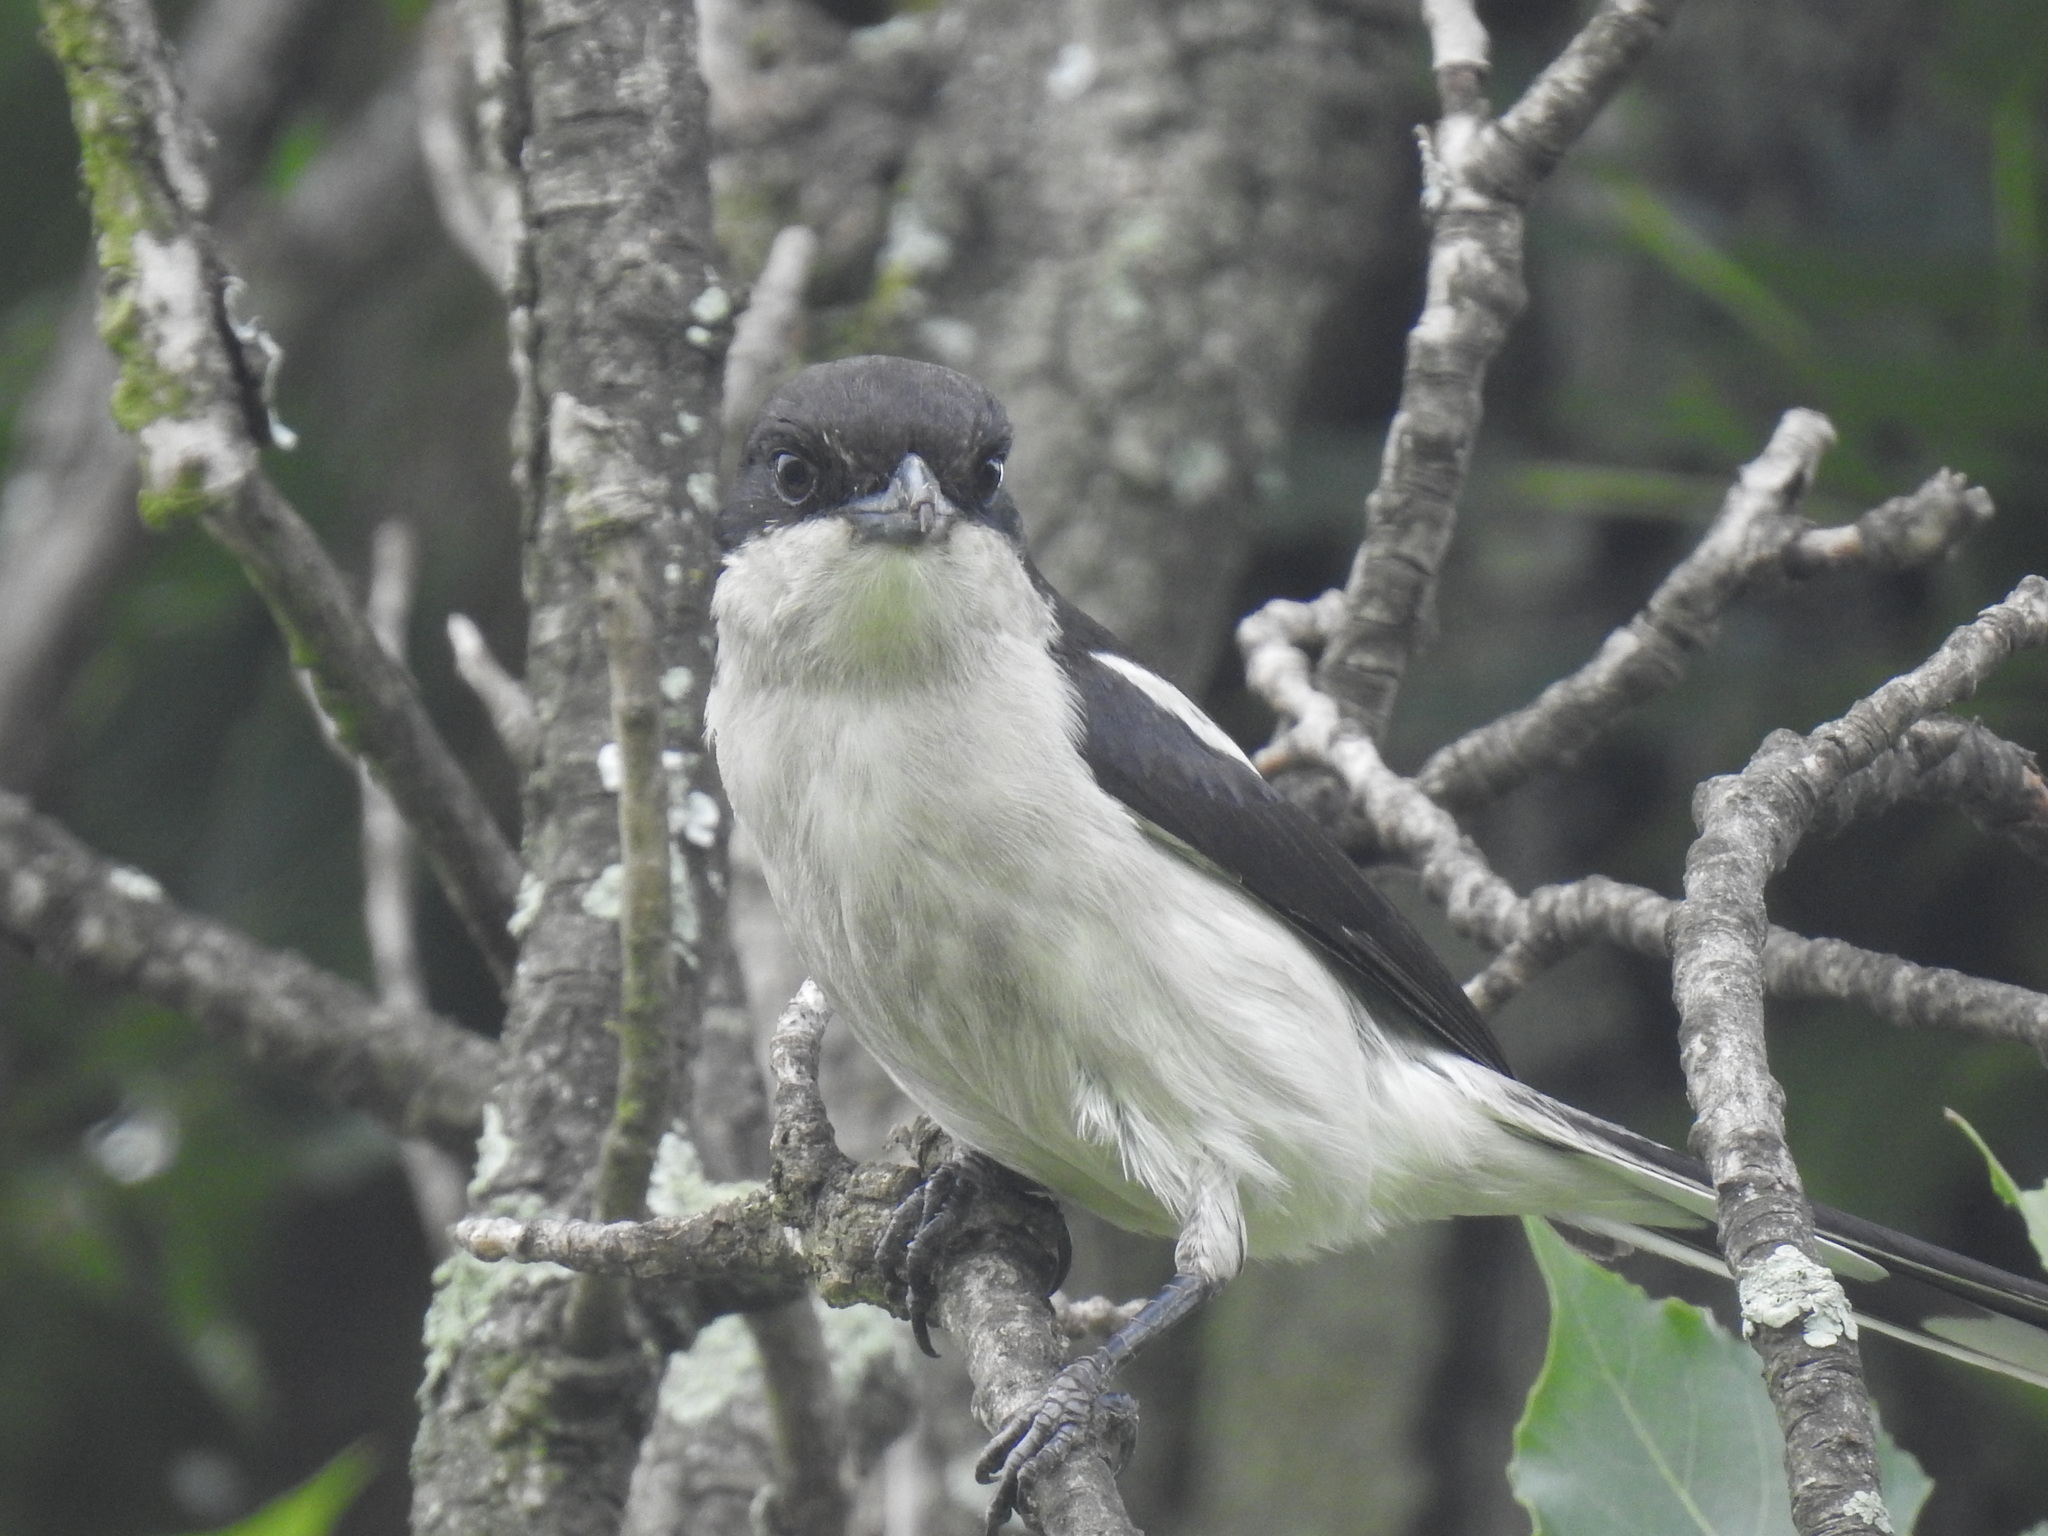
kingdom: Animalia
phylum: Chordata
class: Aves
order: Passeriformes
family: Laniidae
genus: Lanius
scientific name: Lanius collaris
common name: Southern fiscal
